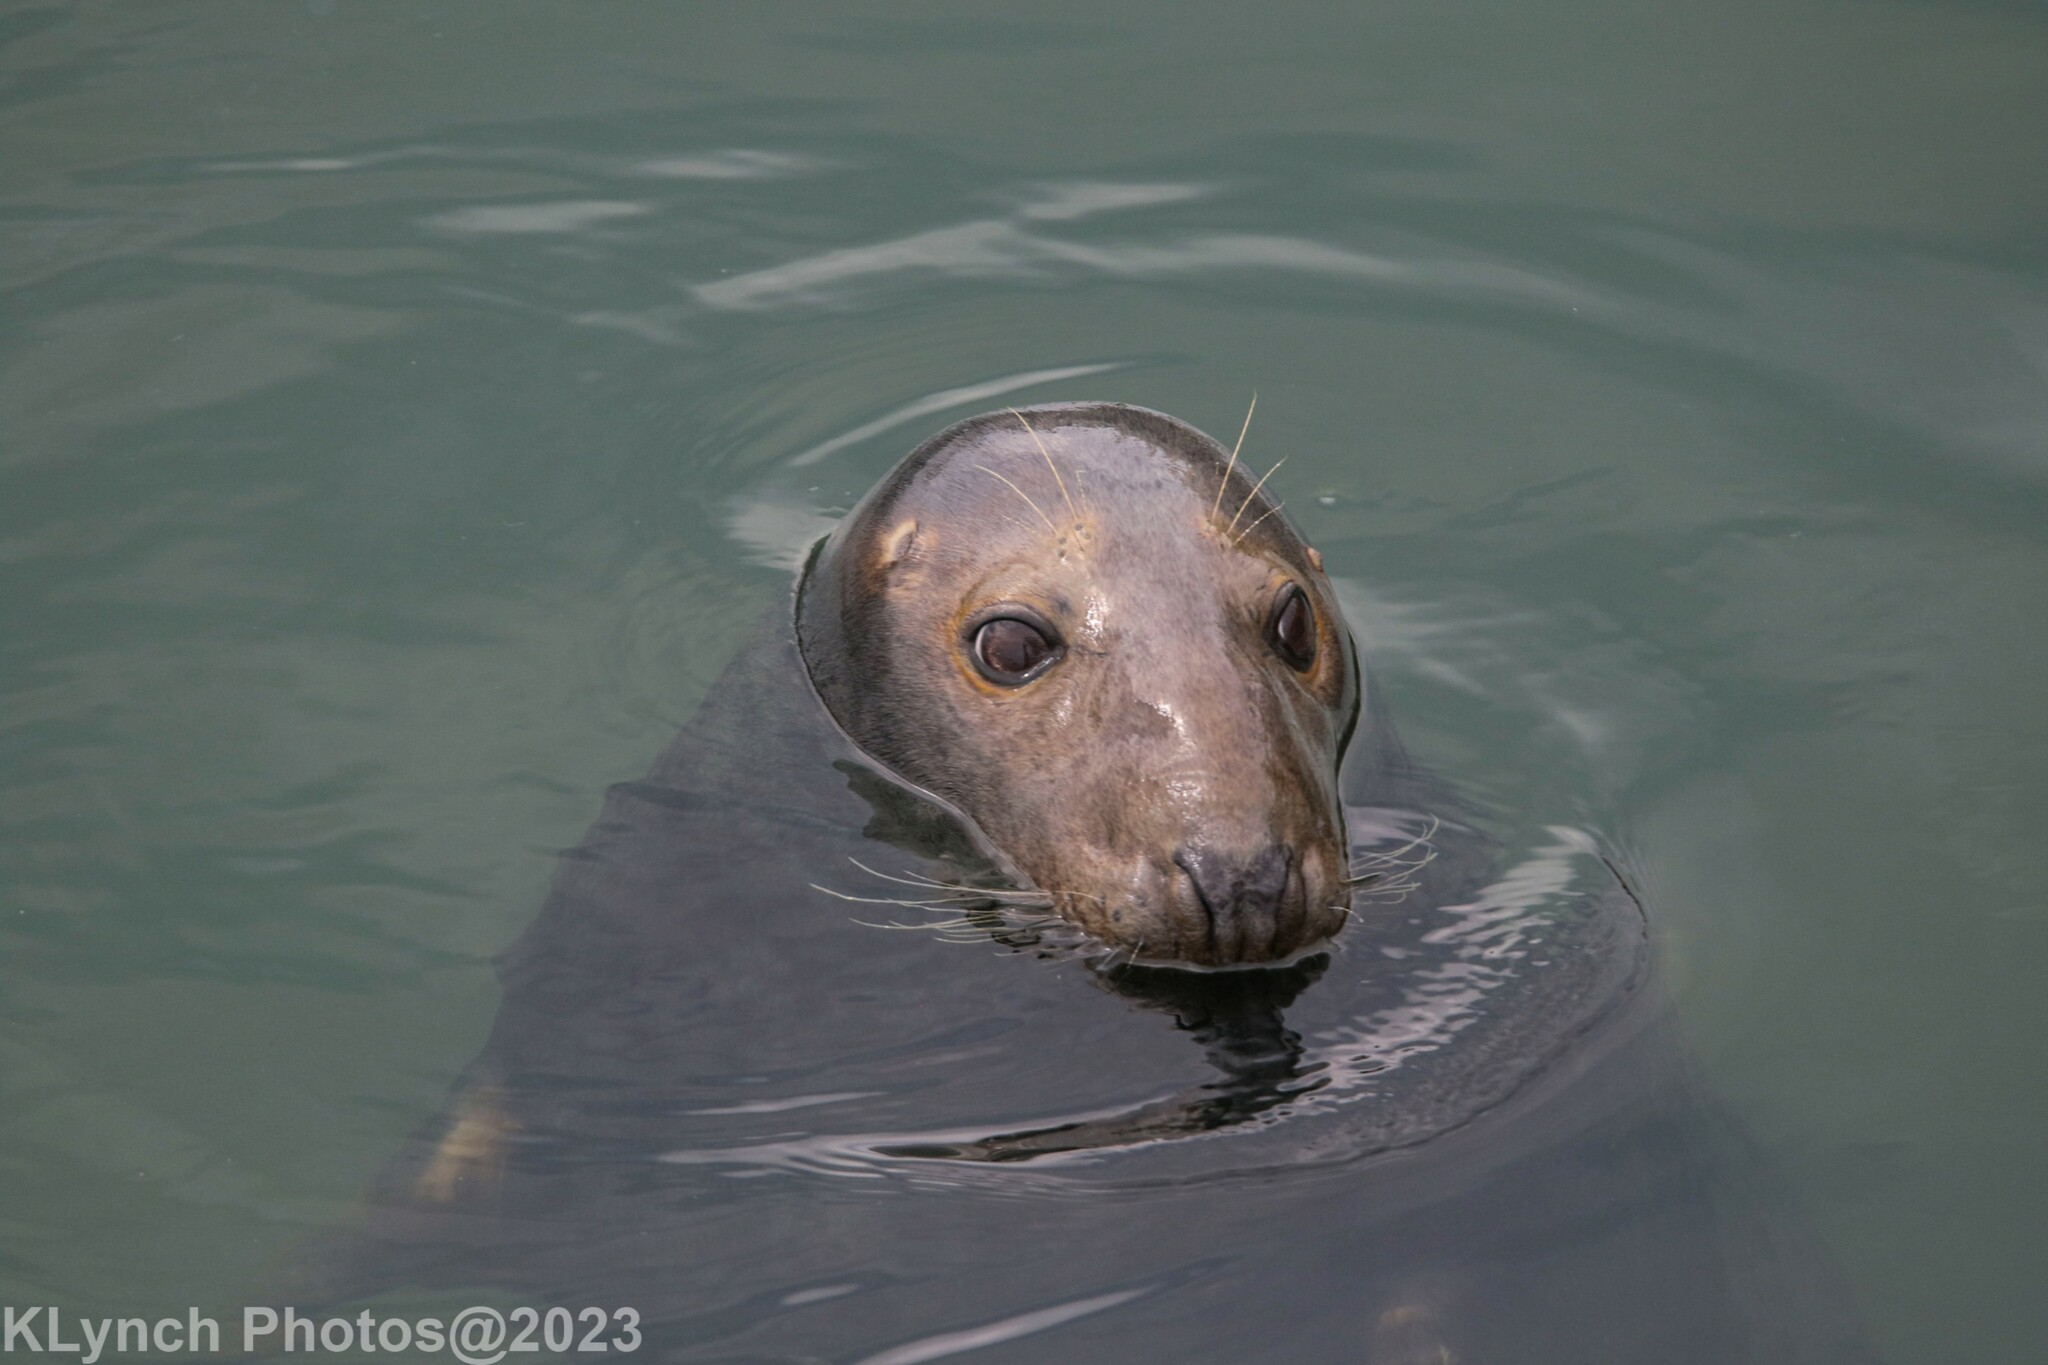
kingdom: Animalia
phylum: Chordata
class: Mammalia
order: Carnivora
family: Phocidae
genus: Halichoerus
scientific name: Halichoerus grypus
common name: Grey seal
